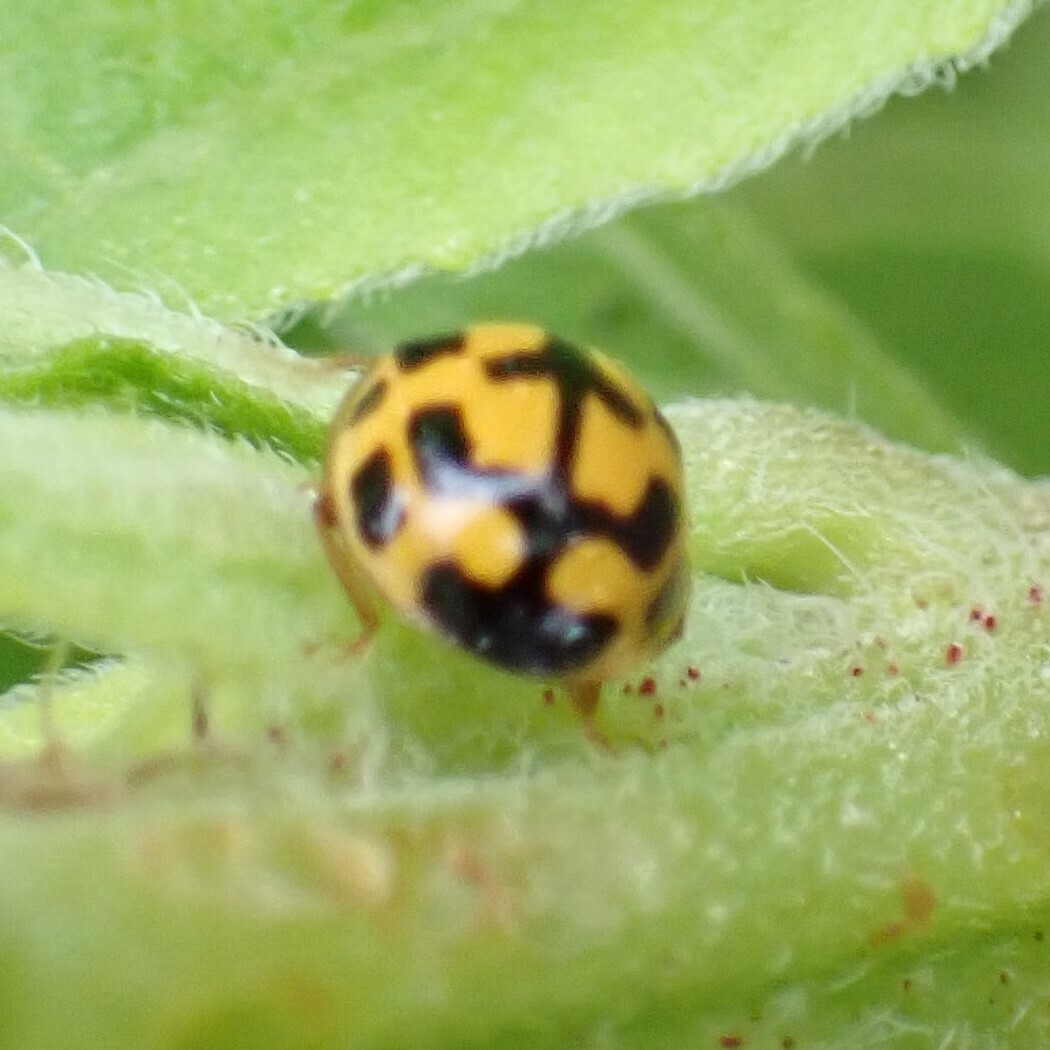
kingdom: Animalia
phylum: Arthropoda
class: Insecta
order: Coleoptera
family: Coccinellidae
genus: Propylaea
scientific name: Propylaea quatuordecimpunctata
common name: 14-spotted ladybird beetle
